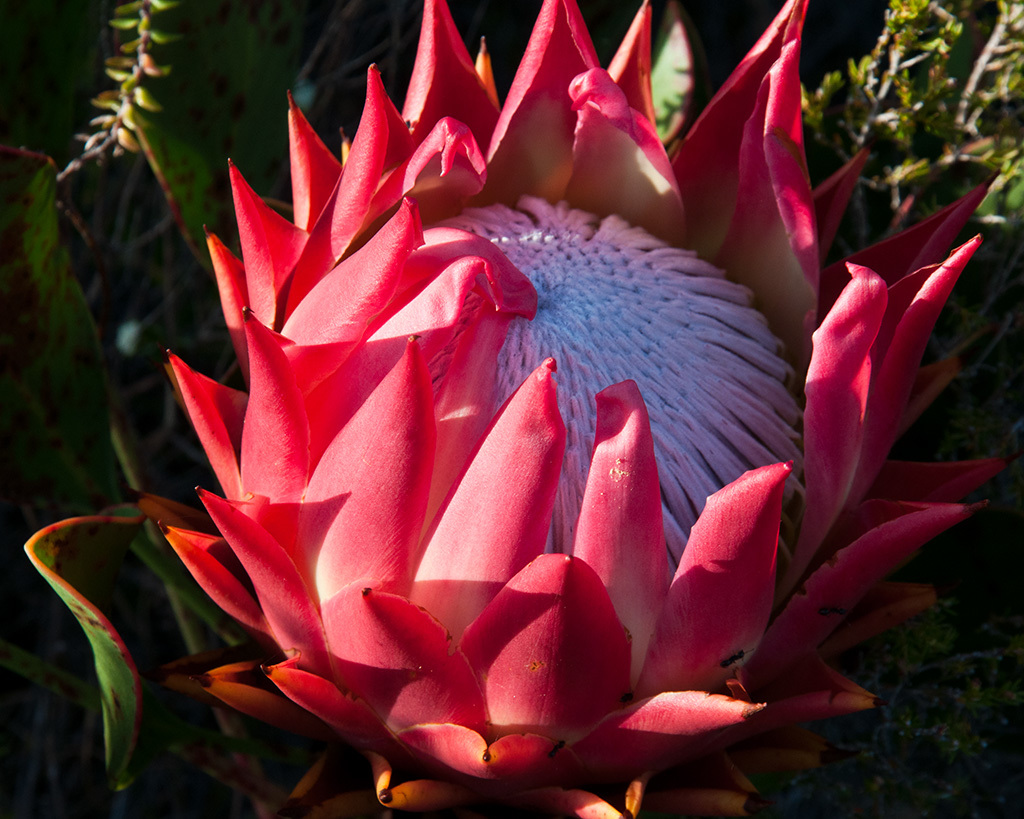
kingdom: Plantae
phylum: Tracheophyta
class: Magnoliopsida
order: Proteales
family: Proteaceae
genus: Protea
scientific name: Protea cynaroides
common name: King protea
